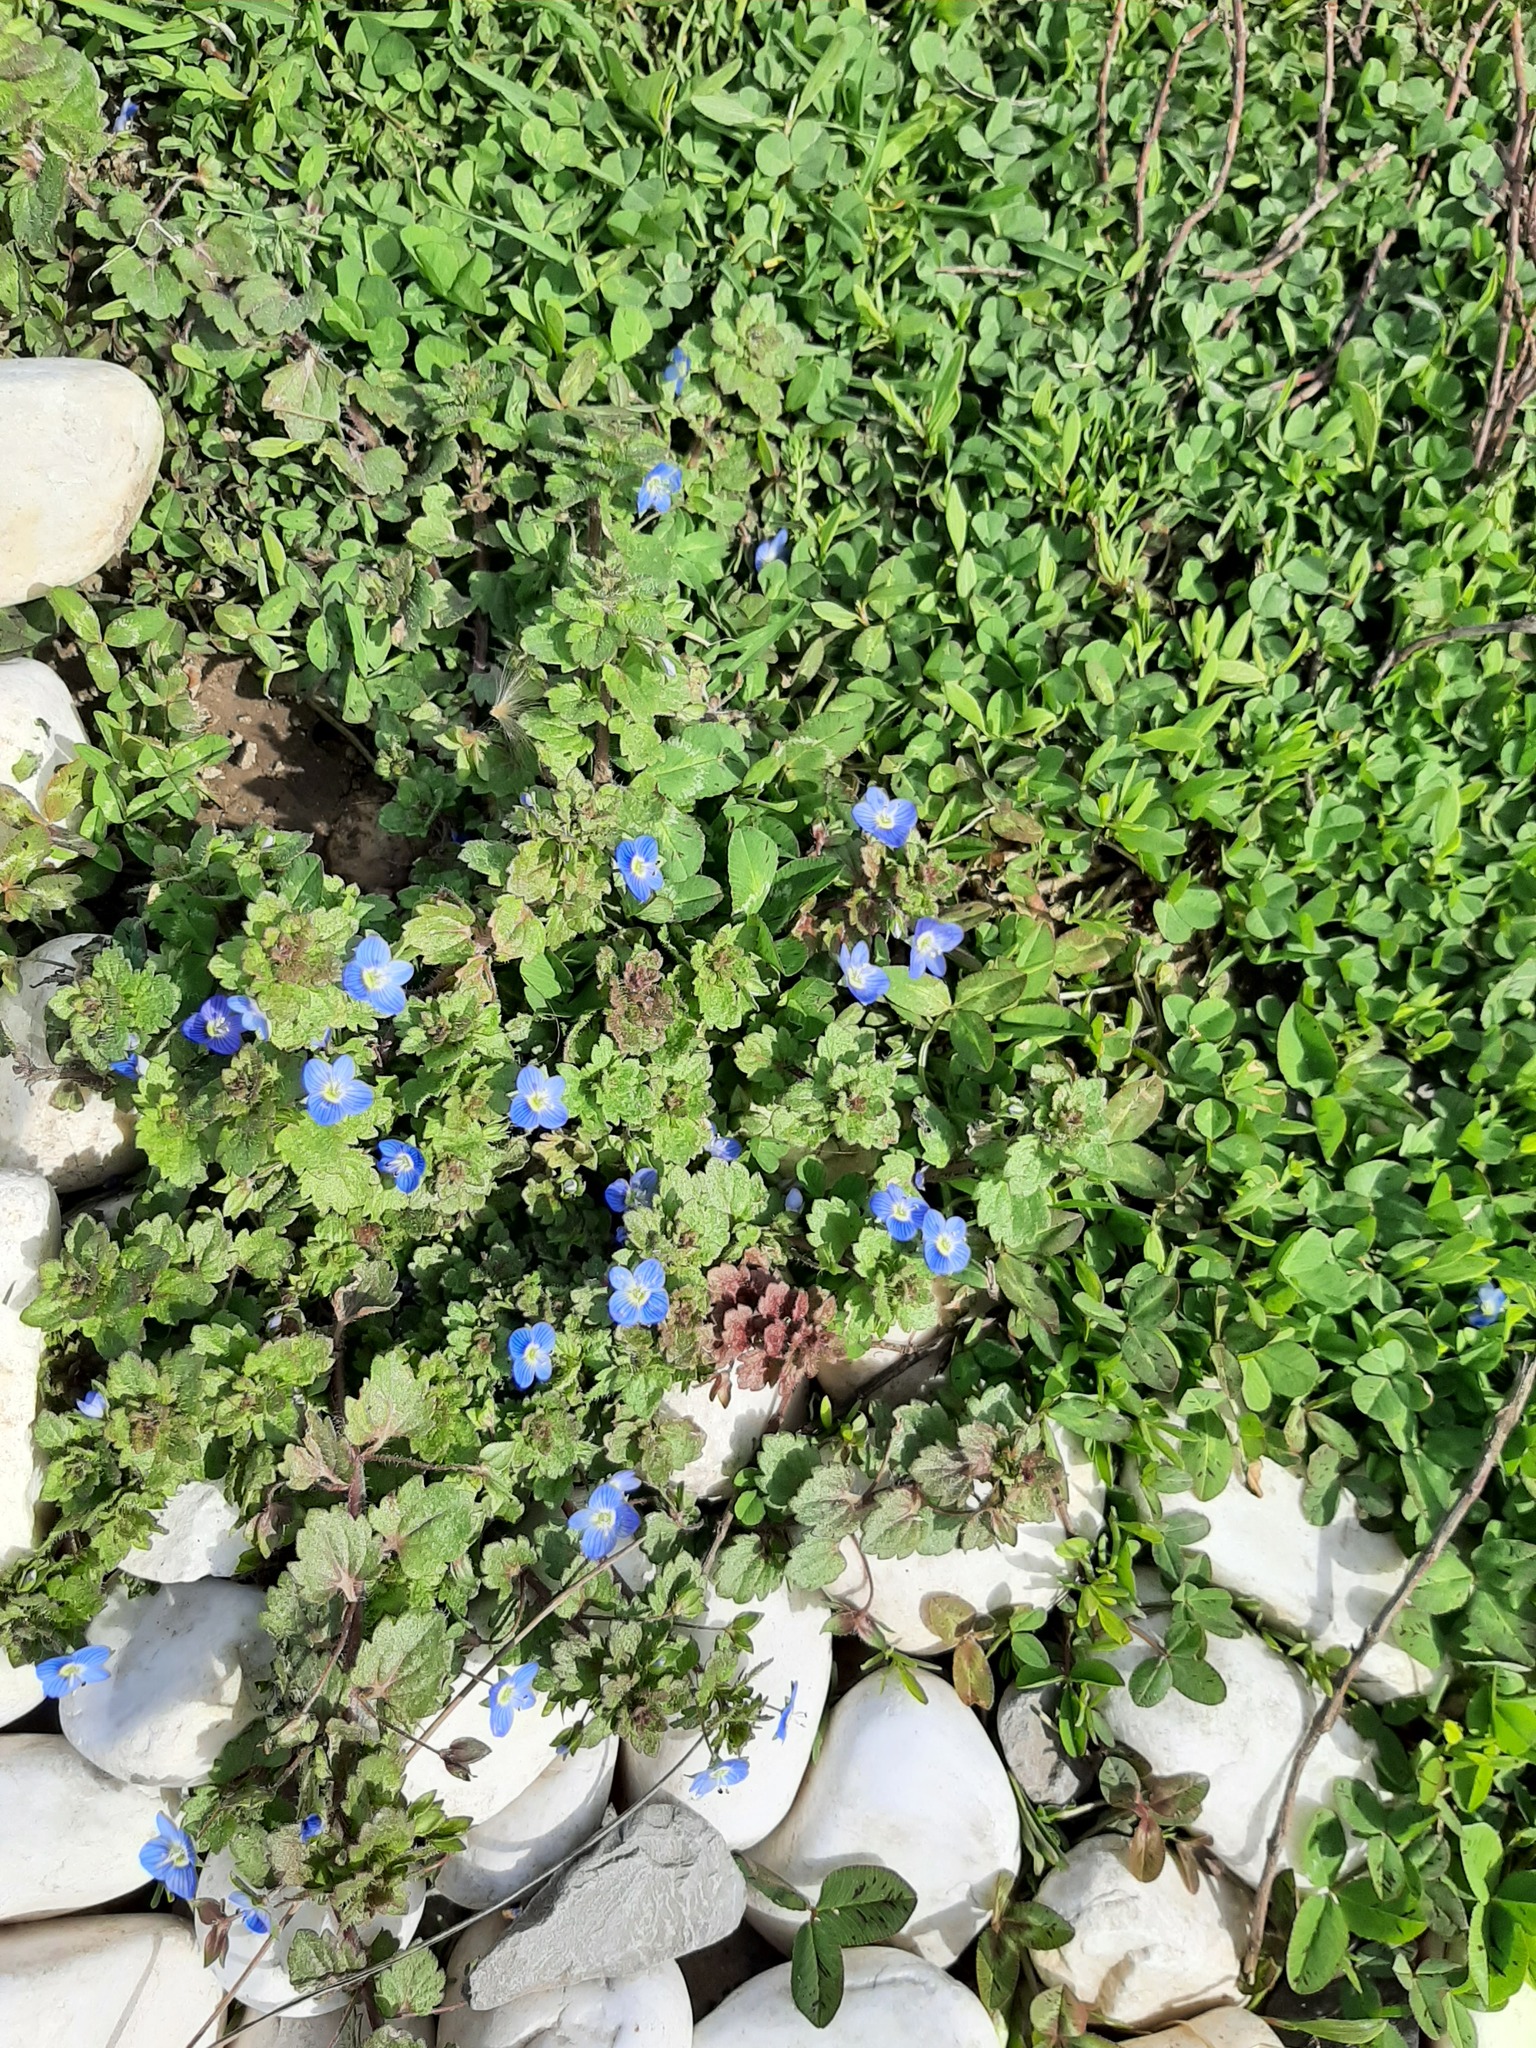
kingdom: Plantae
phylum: Tracheophyta
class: Magnoliopsida
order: Lamiales
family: Plantaginaceae
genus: Veronica
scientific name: Veronica persica
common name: Common field-speedwell
